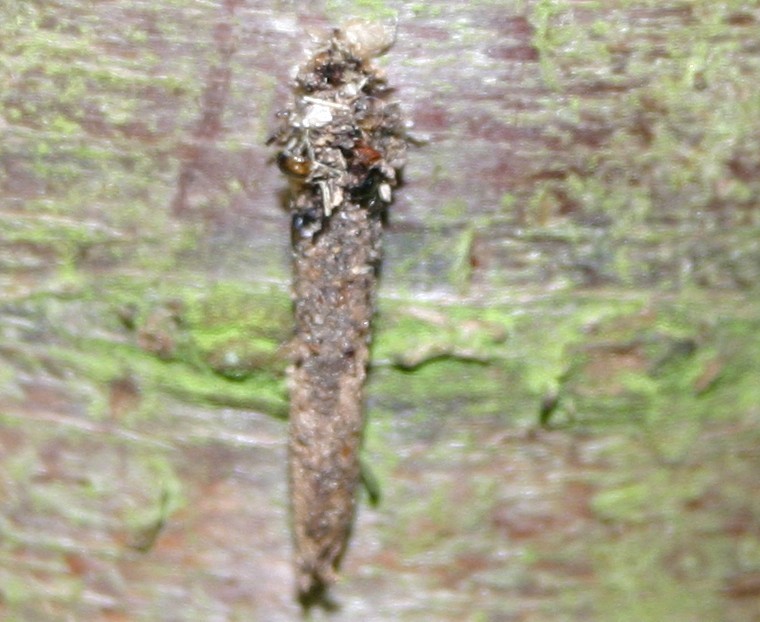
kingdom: Animalia
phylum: Arthropoda
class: Insecta
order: Lepidoptera
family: Psychidae
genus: Taleporia
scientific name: Taleporia tubulosa
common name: Brown smoke
